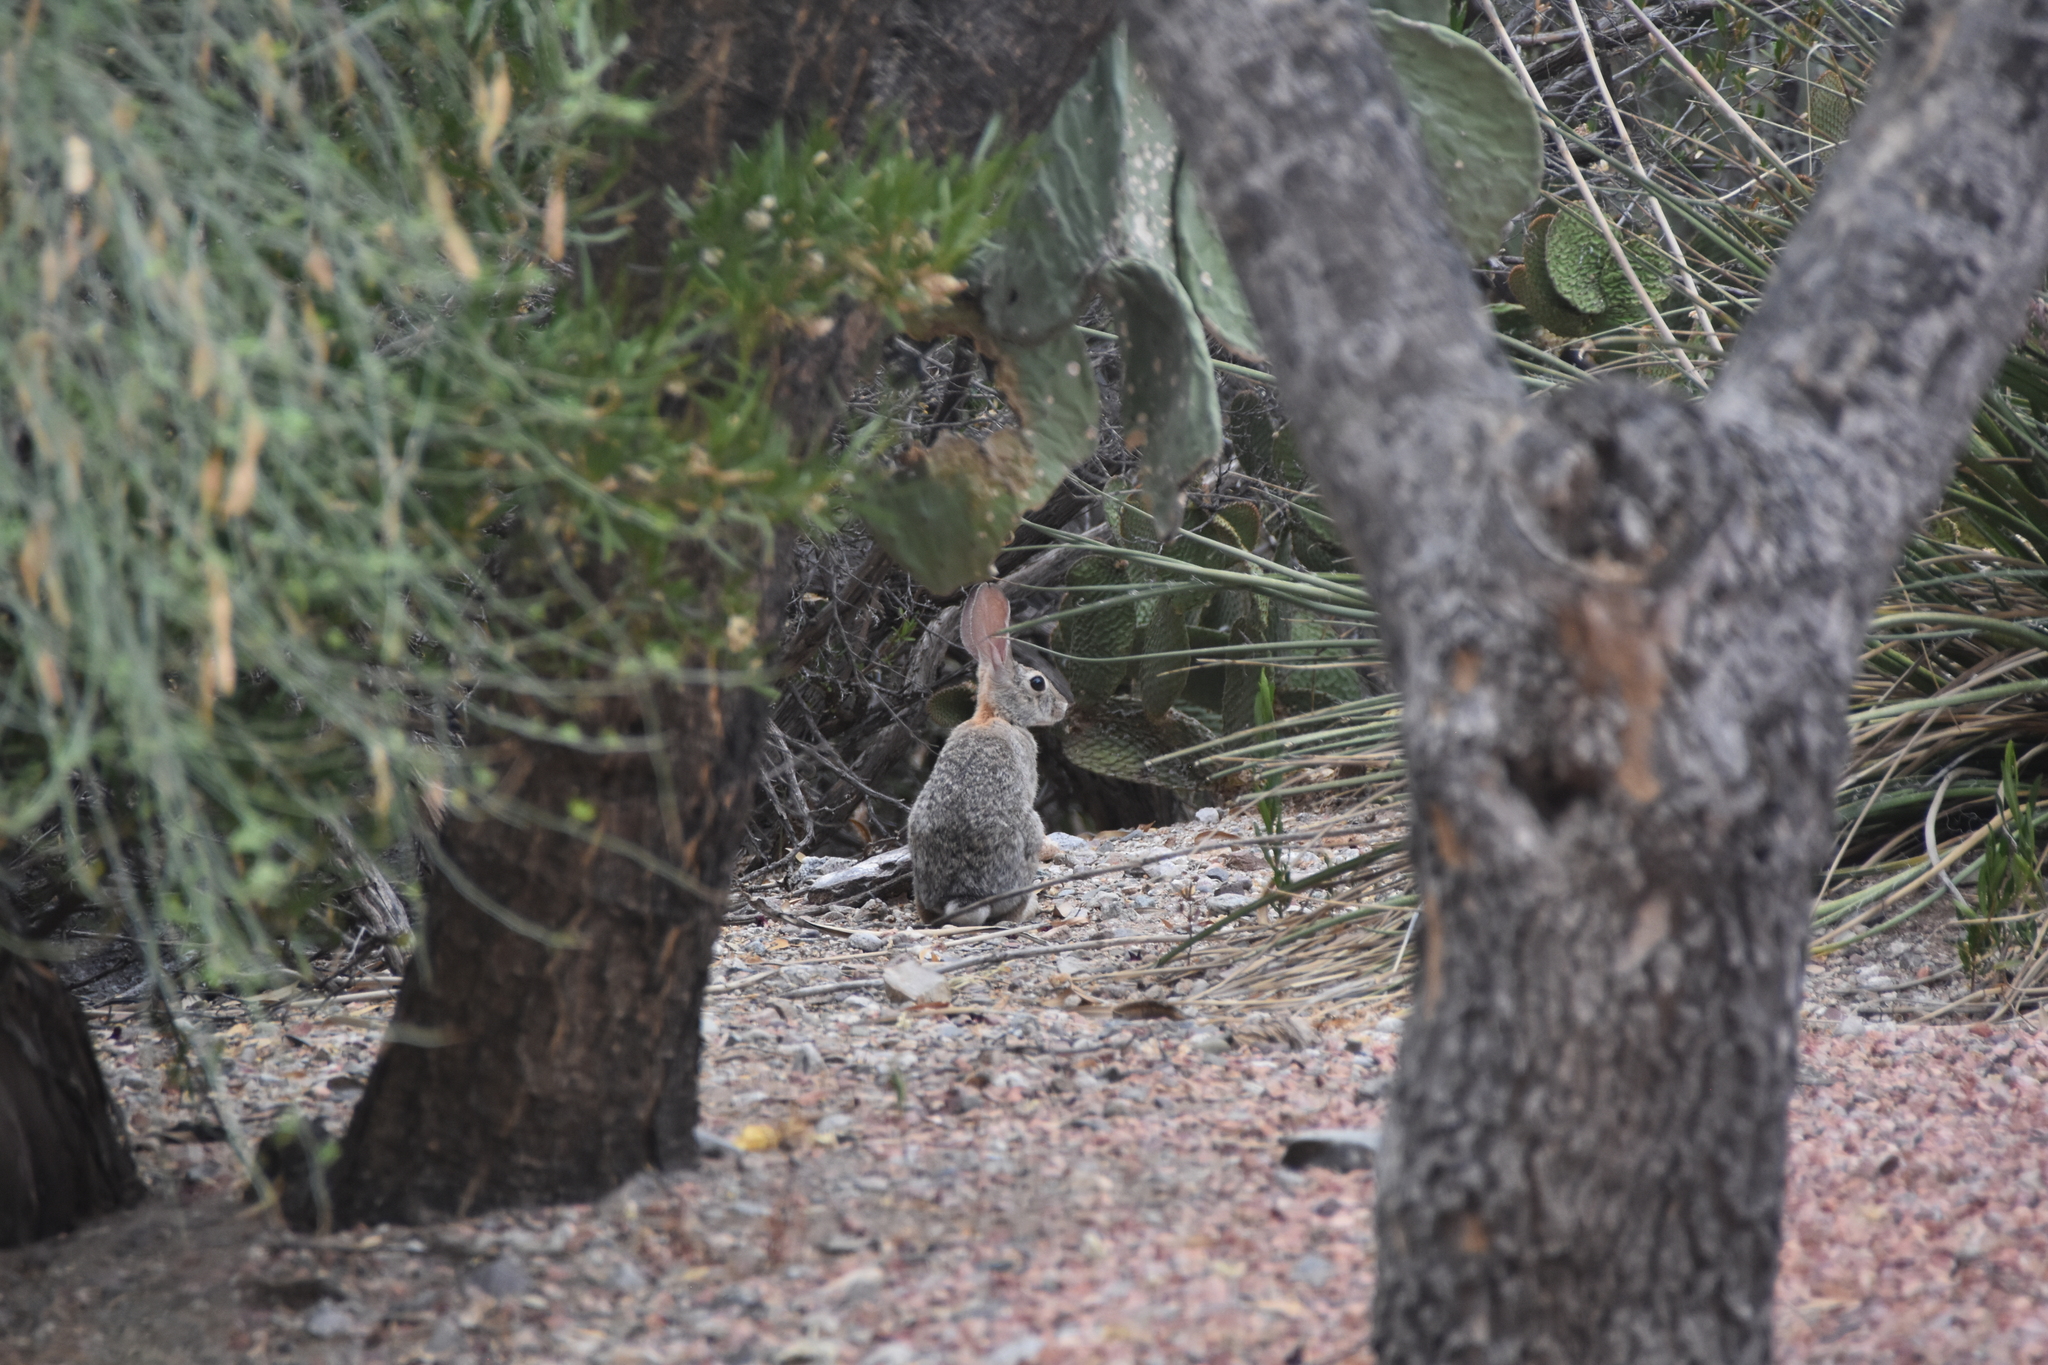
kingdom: Animalia
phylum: Chordata
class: Mammalia
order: Lagomorpha
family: Leporidae
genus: Sylvilagus
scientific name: Sylvilagus audubonii
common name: Desert cottontail
